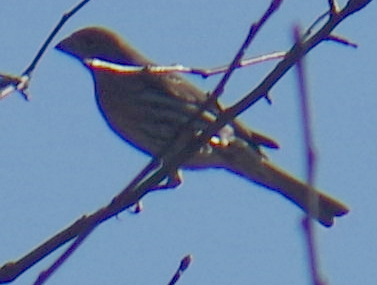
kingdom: Animalia
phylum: Chordata
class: Aves
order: Passeriformes
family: Fringillidae
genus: Haemorhous
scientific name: Haemorhous mexicanus
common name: House finch
